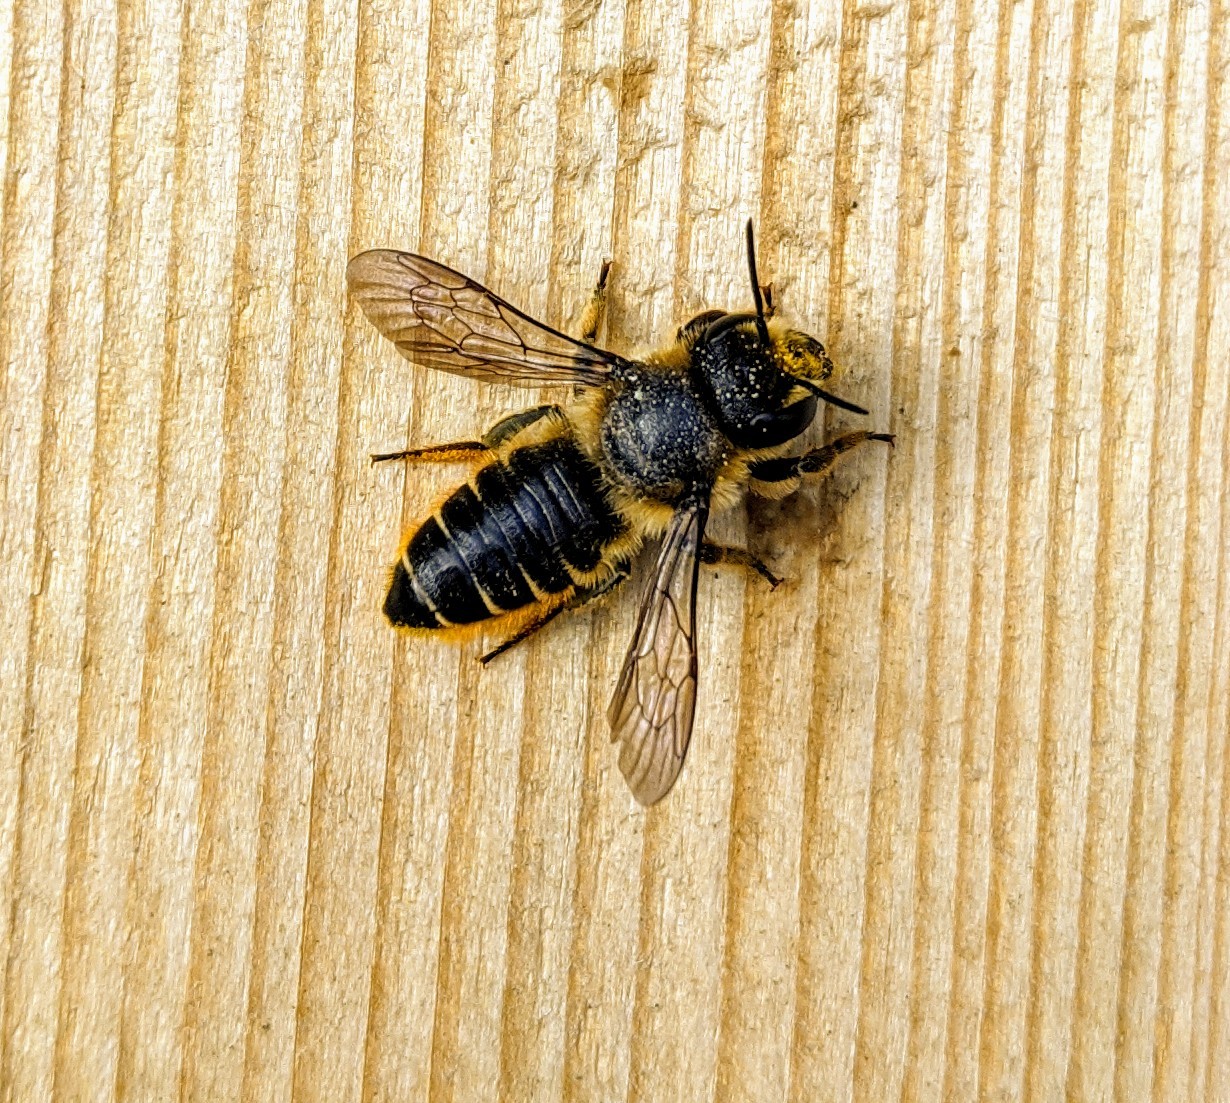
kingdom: Animalia
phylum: Arthropoda
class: Insecta
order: Hymenoptera
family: Megachilidae
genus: Megachile
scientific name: Megachile centuncularis
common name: Patchwork leafcutter bee
